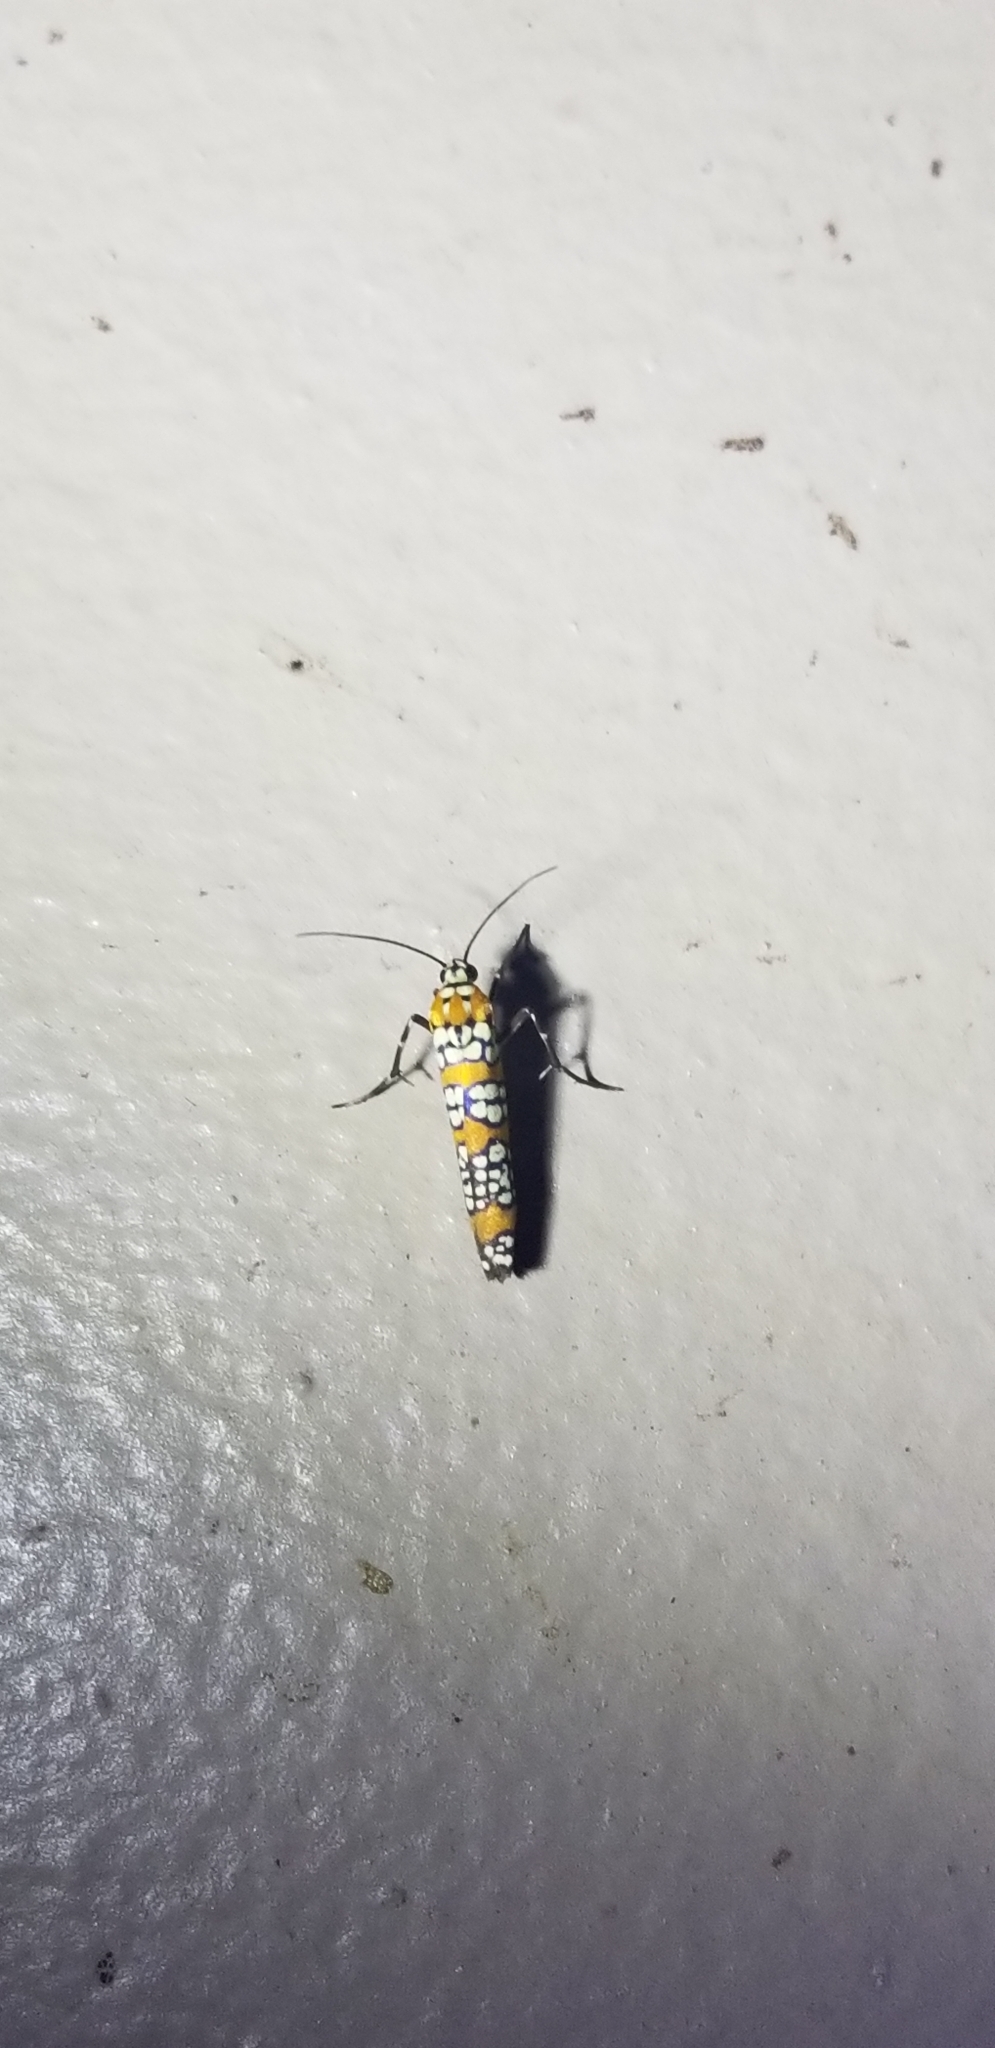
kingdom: Animalia
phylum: Arthropoda
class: Insecta
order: Lepidoptera
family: Attevidae
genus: Atteva
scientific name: Atteva punctella
